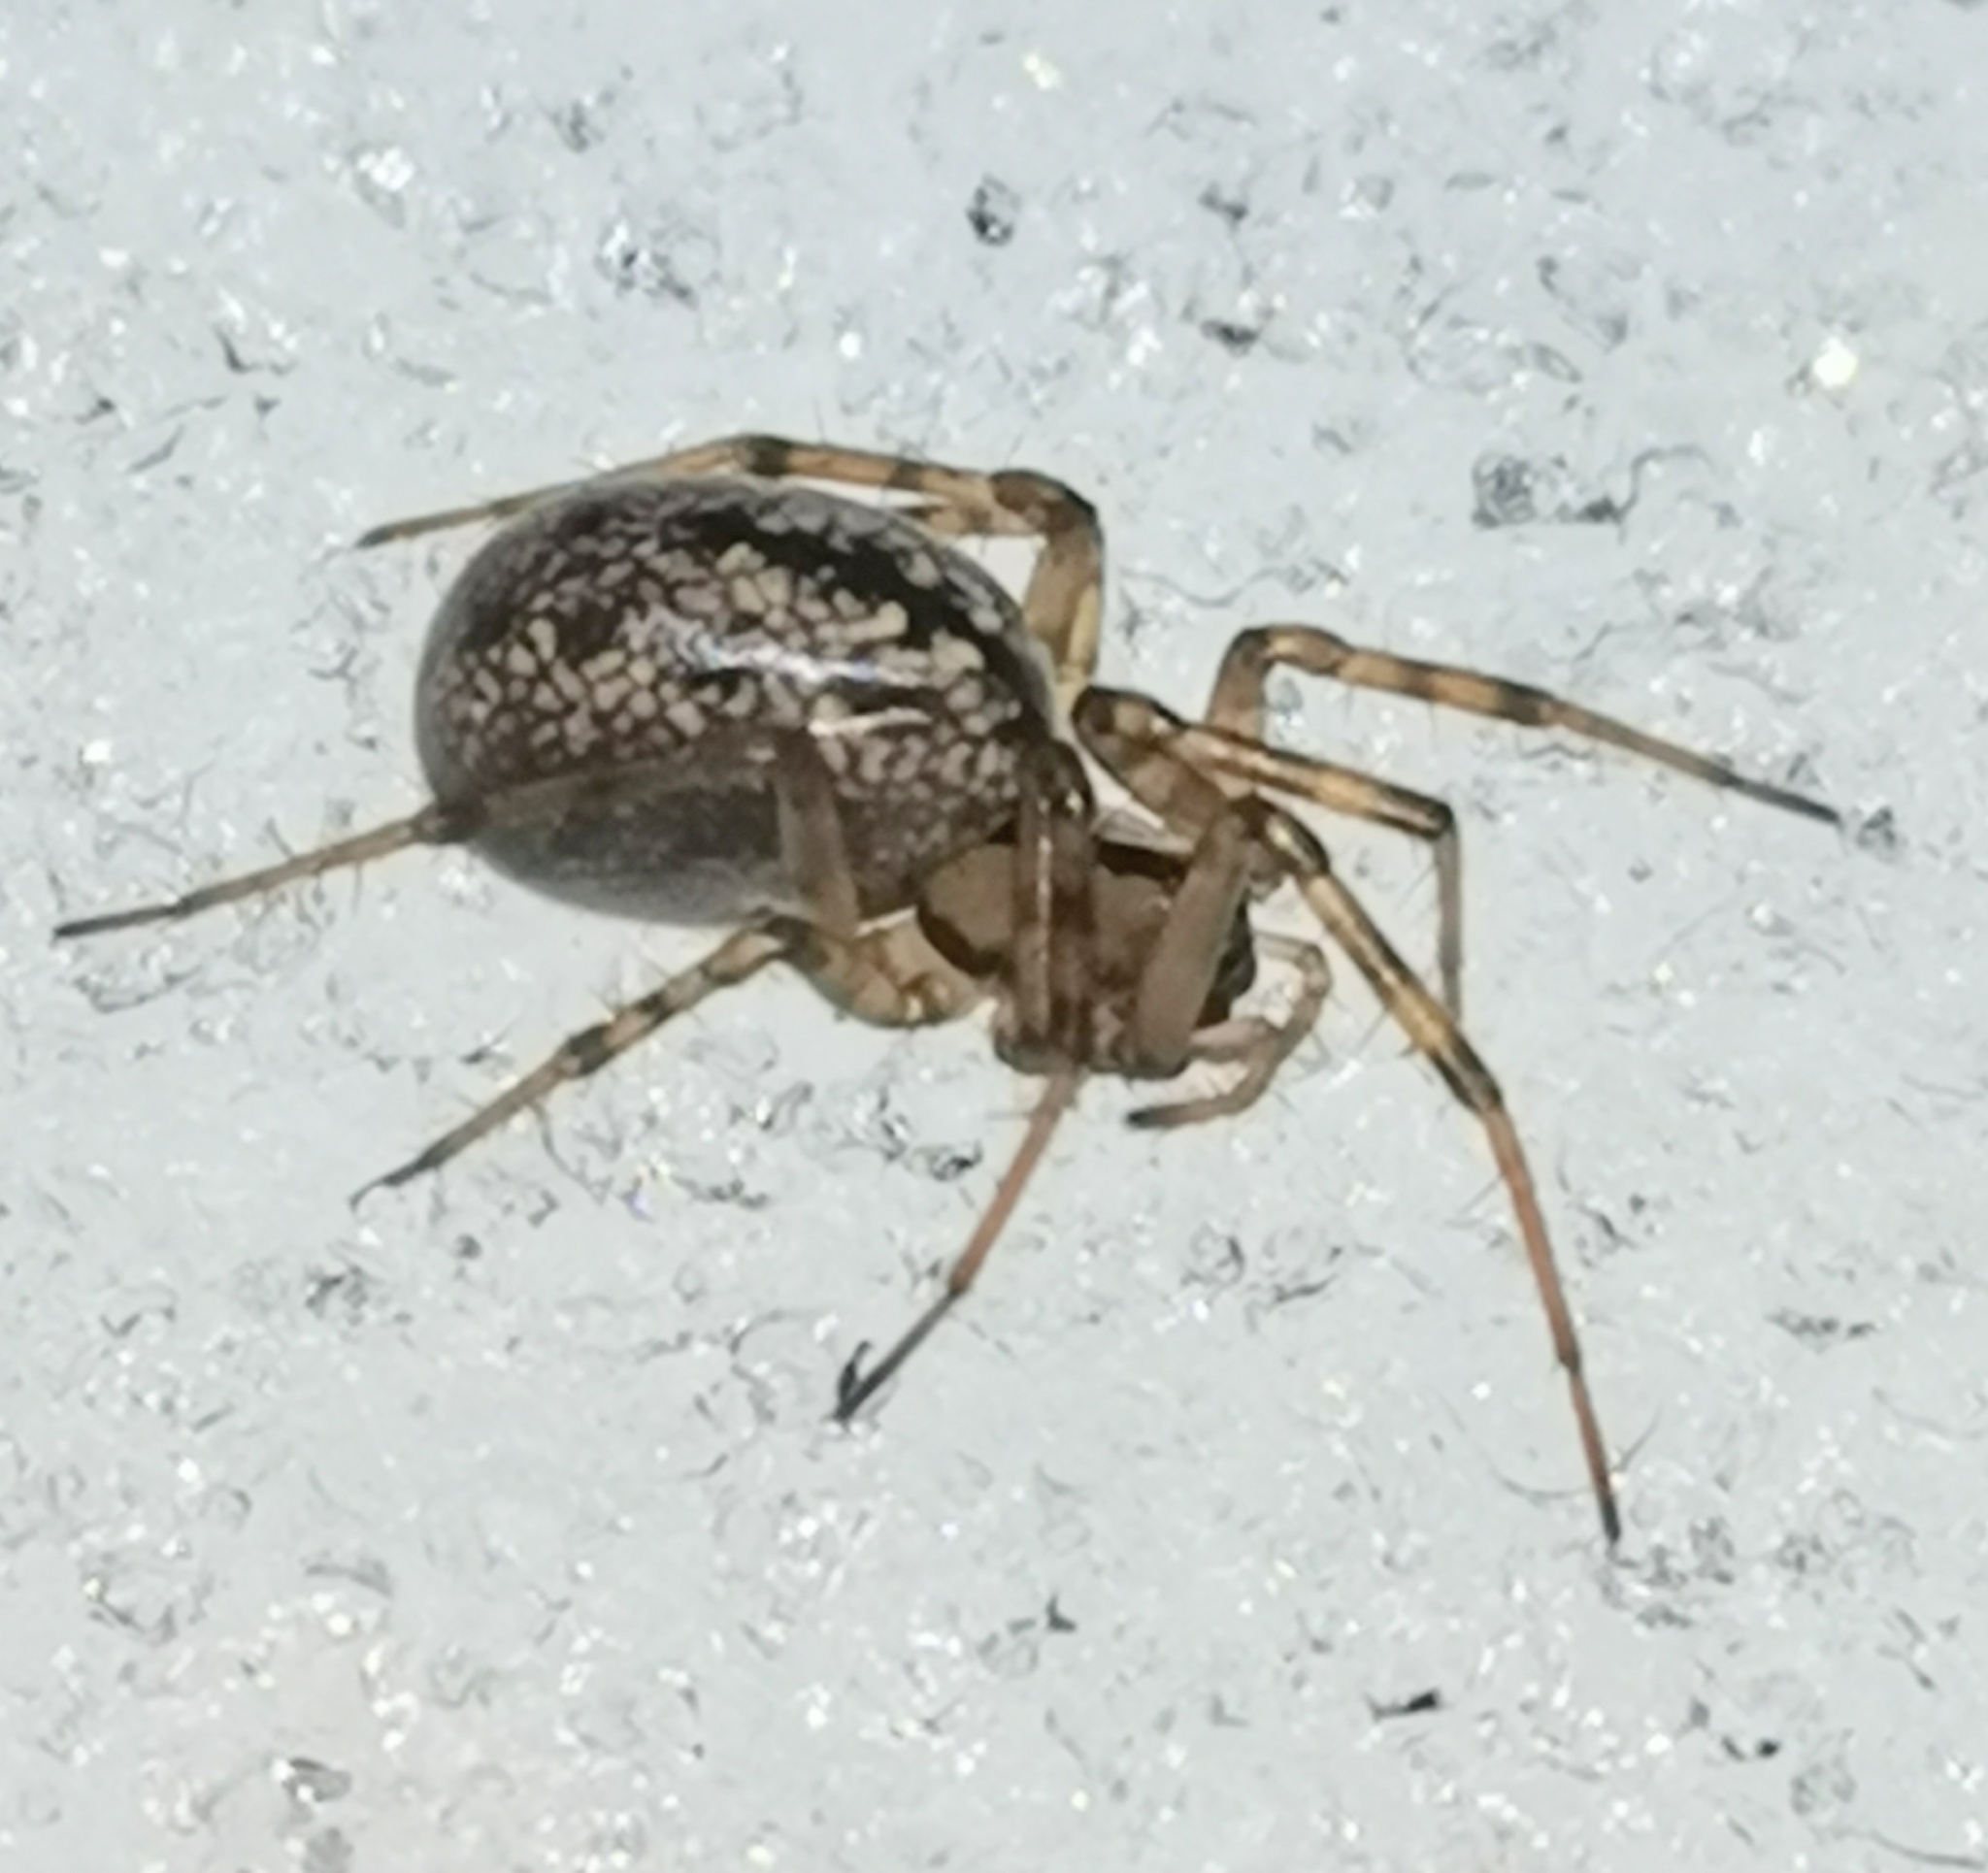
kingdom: Animalia
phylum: Arthropoda
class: Arachnida
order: Araneae
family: Linyphiidae
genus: Stemonyphantes
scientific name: Stemonyphantes lineatus
